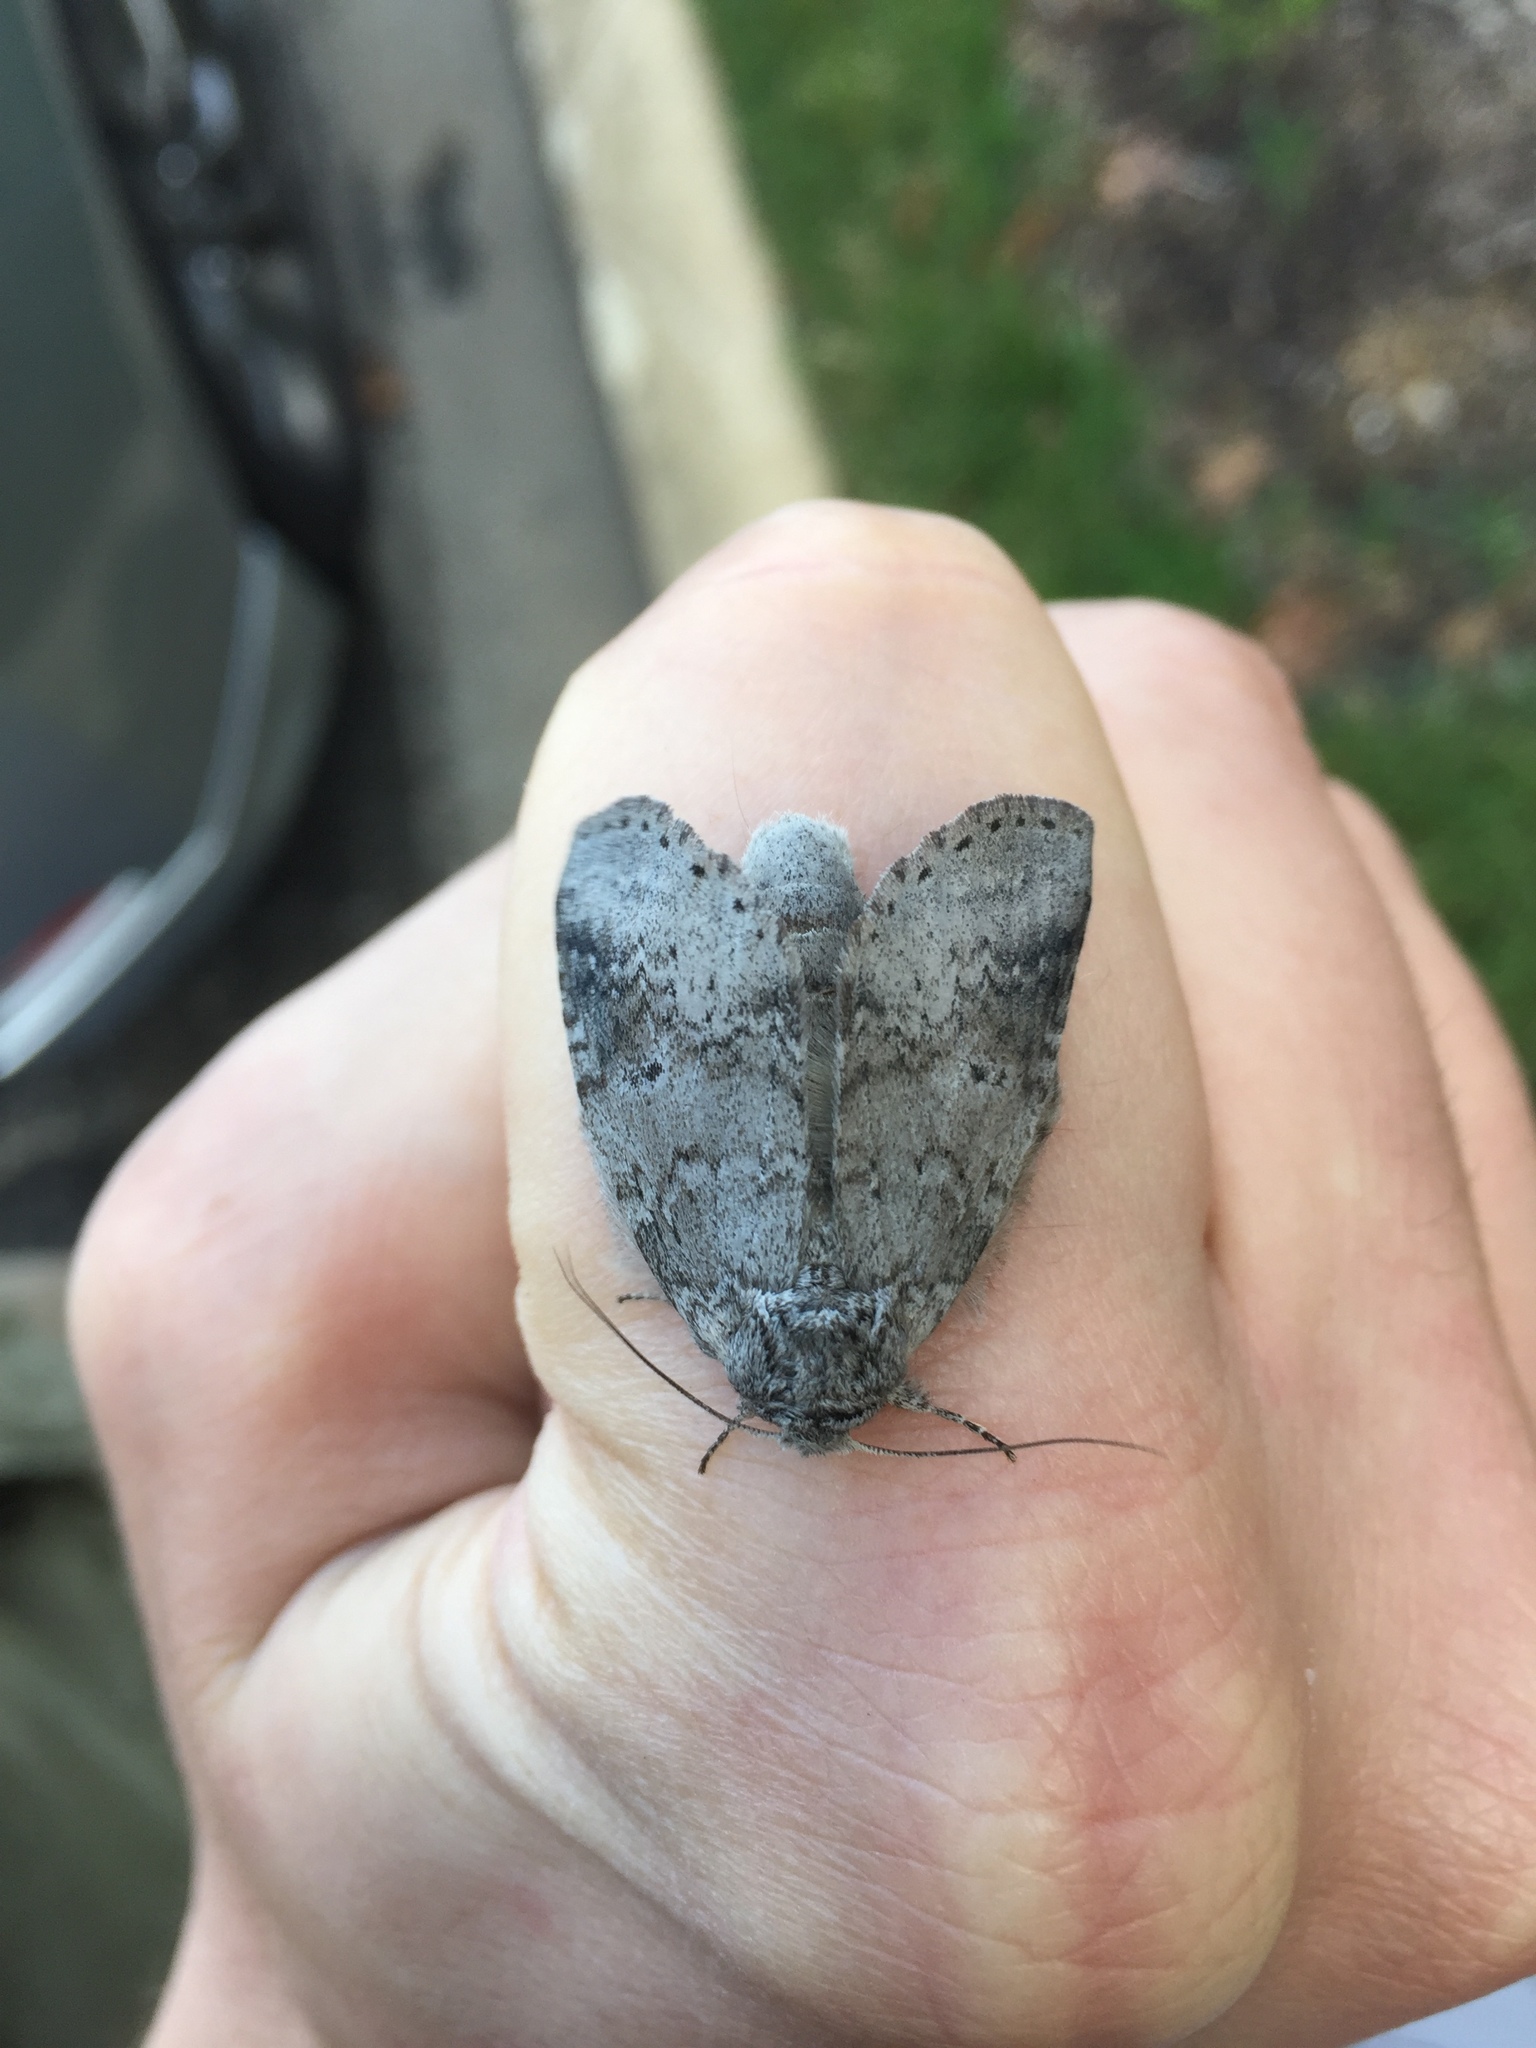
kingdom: Animalia
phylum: Arthropoda
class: Insecta
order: Lepidoptera
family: Notodontidae
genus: Lochmaeus
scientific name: Lochmaeus manteo
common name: Variable oakleaf caterpillar moth
